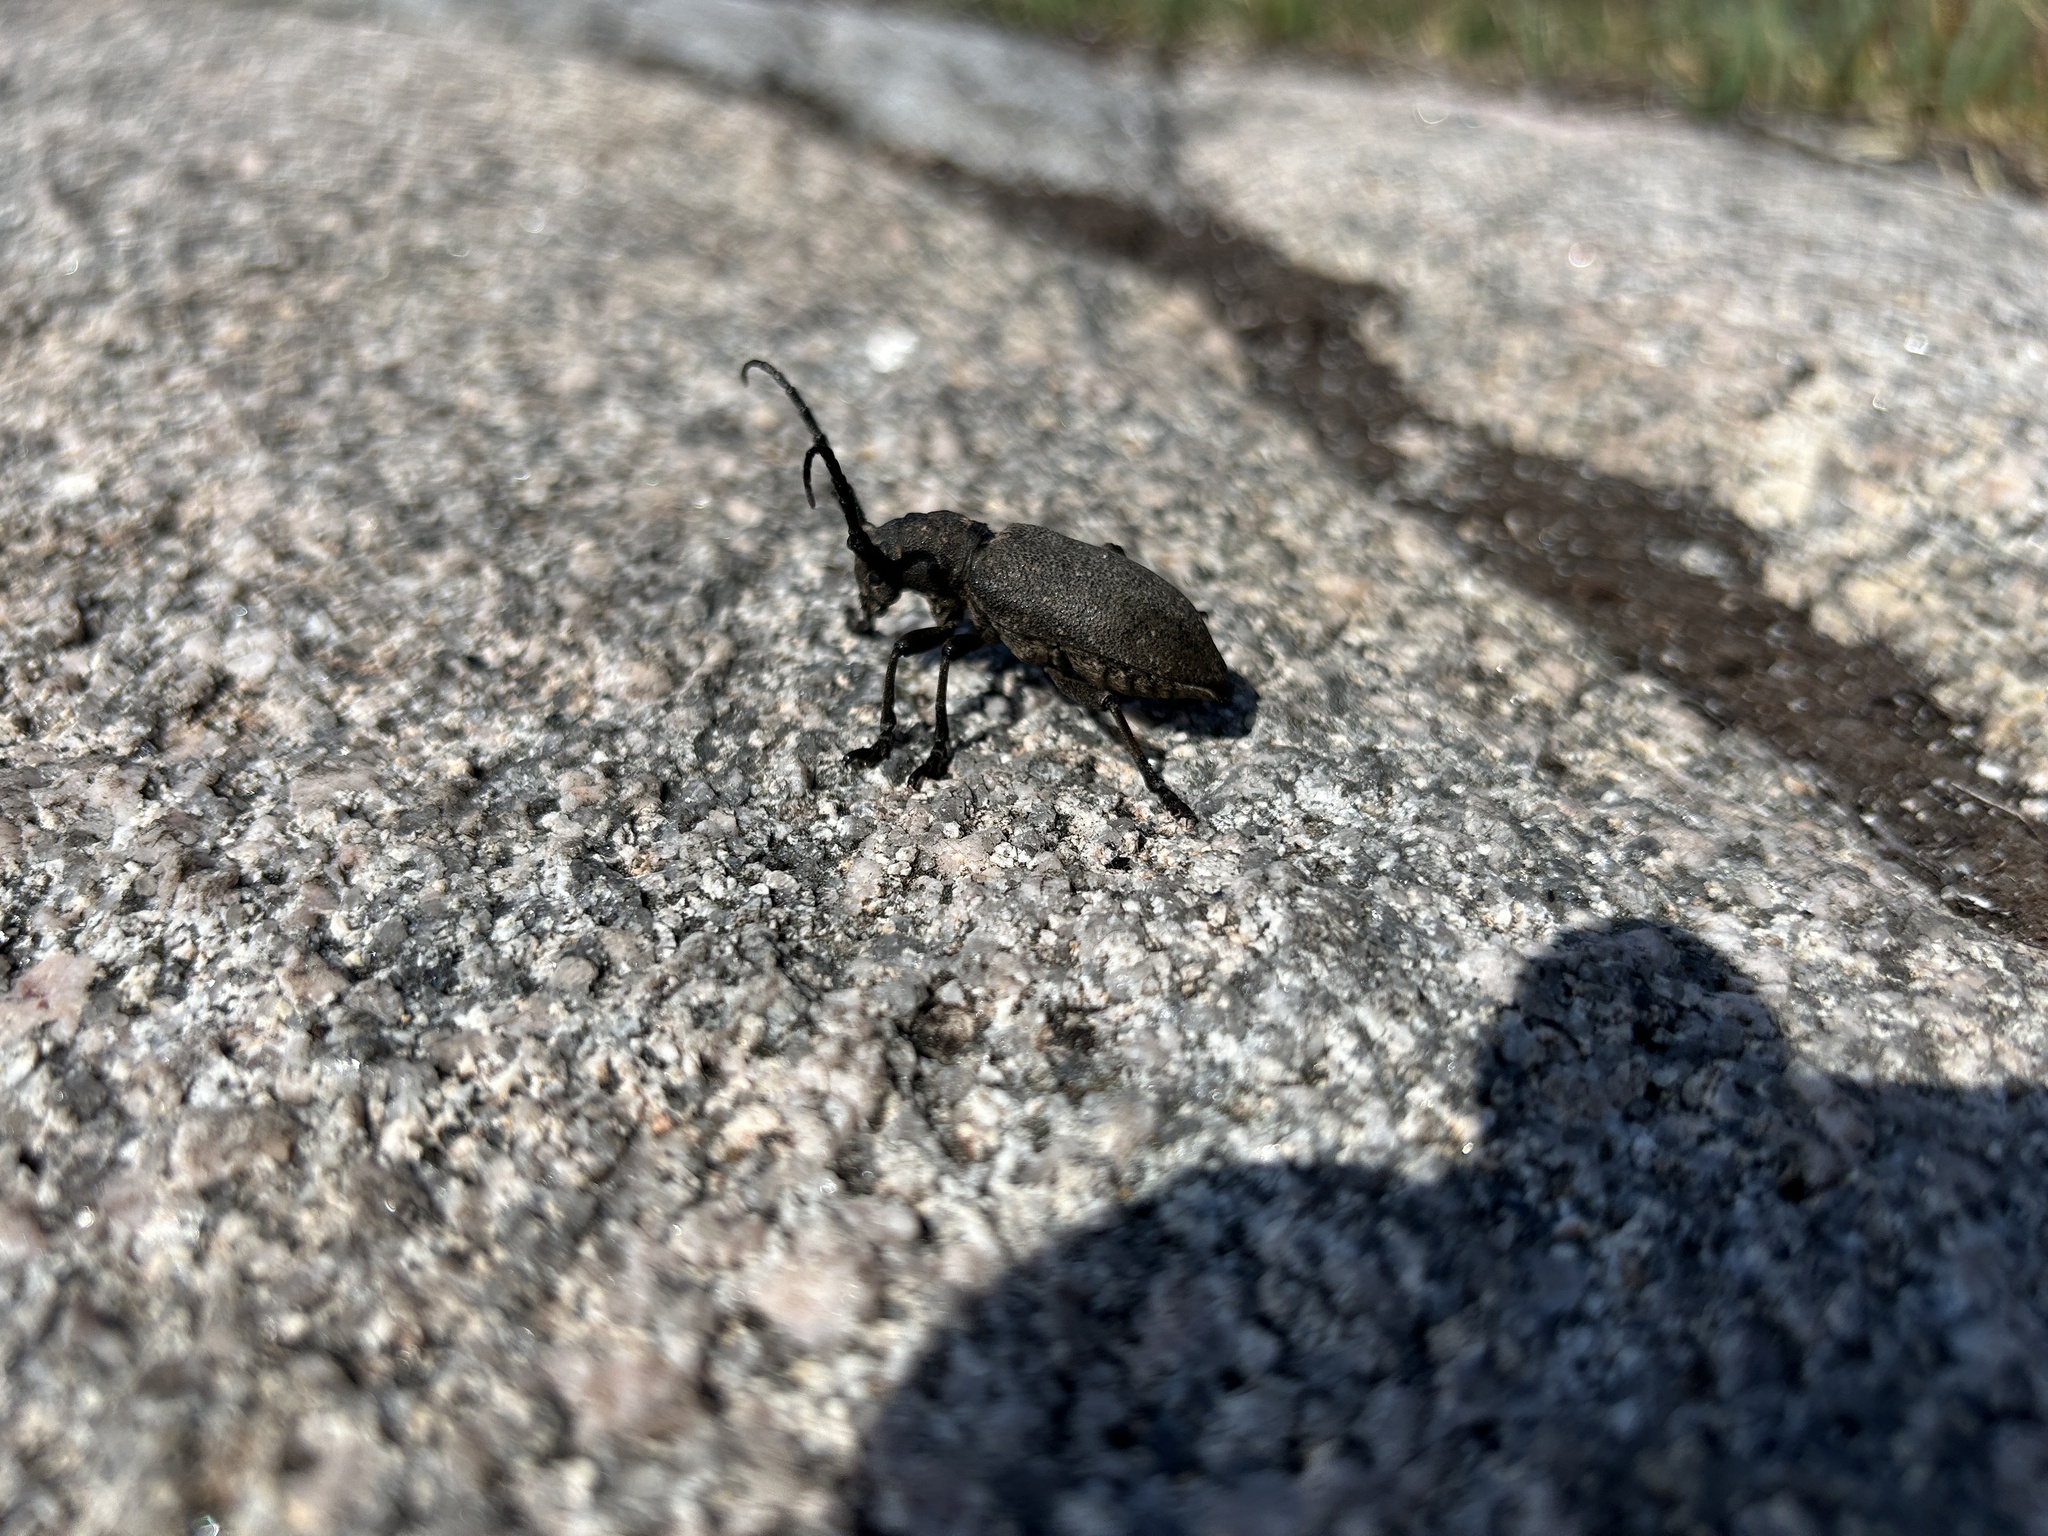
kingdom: Animalia
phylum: Arthropoda
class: Insecta
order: Coleoptera
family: Cerambycidae
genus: Lamia
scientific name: Lamia textor
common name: Weaver beetle
